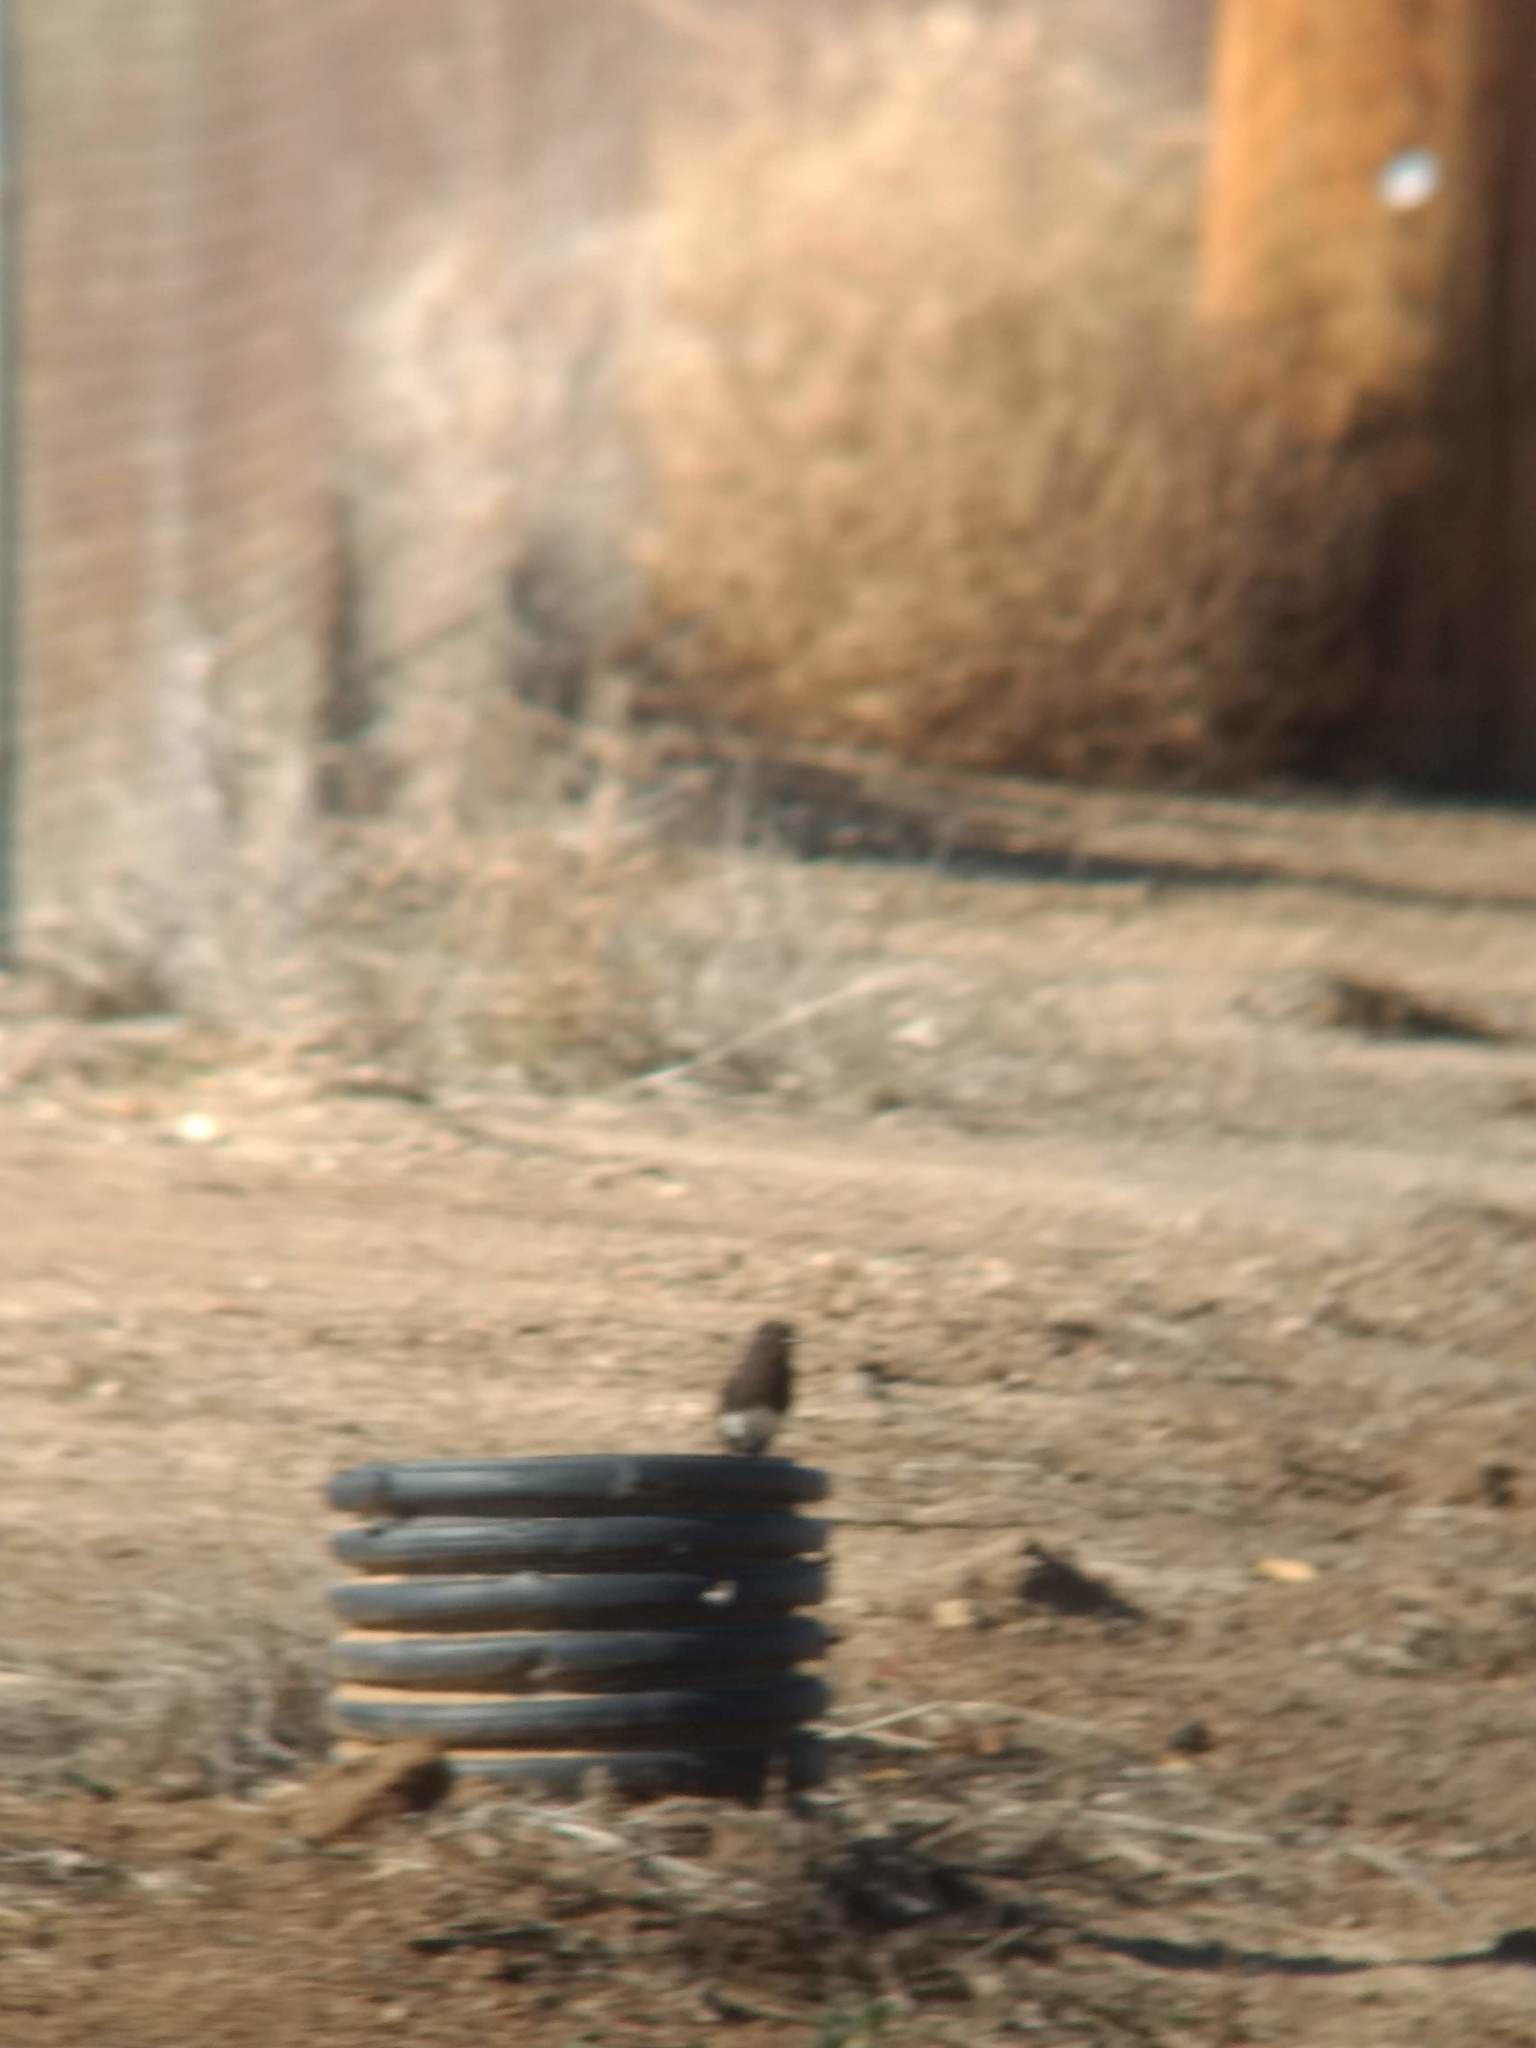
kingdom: Animalia
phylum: Chordata
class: Aves
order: Passeriformes
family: Tyrannidae
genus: Sayornis
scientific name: Sayornis nigricans
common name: Black phoebe
